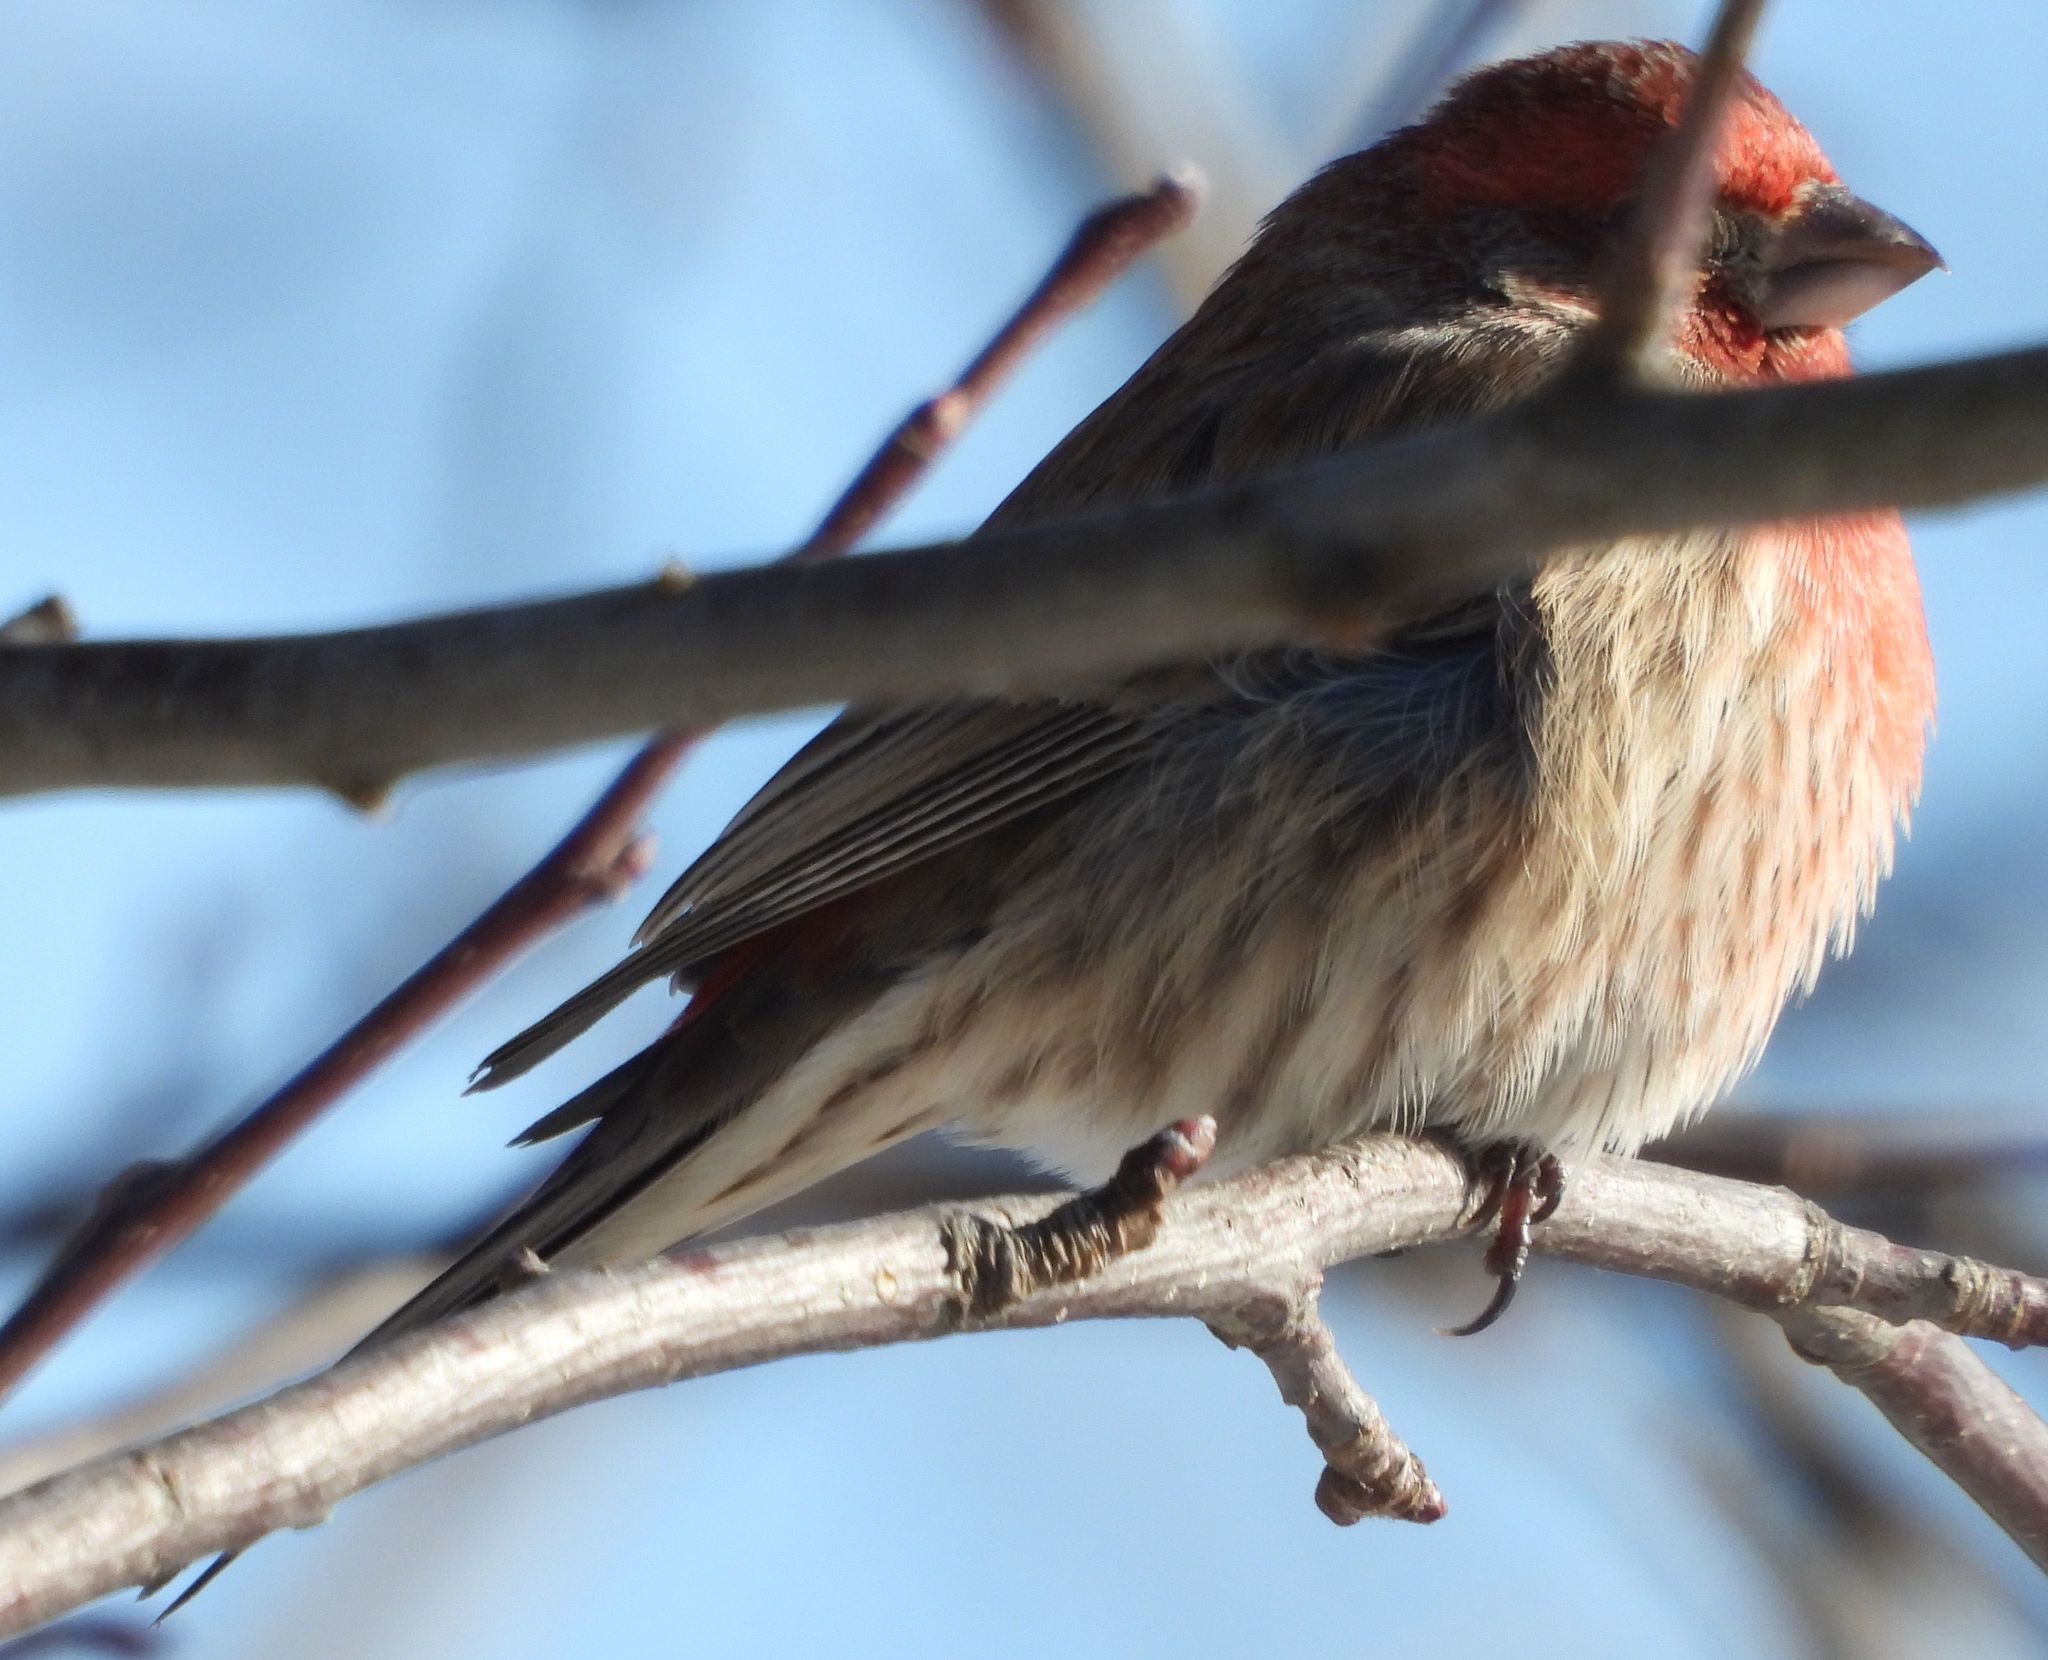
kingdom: Animalia
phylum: Chordata
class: Aves
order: Passeriformes
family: Fringillidae
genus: Haemorhous
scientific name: Haemorhous mexicanus
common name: House finch
